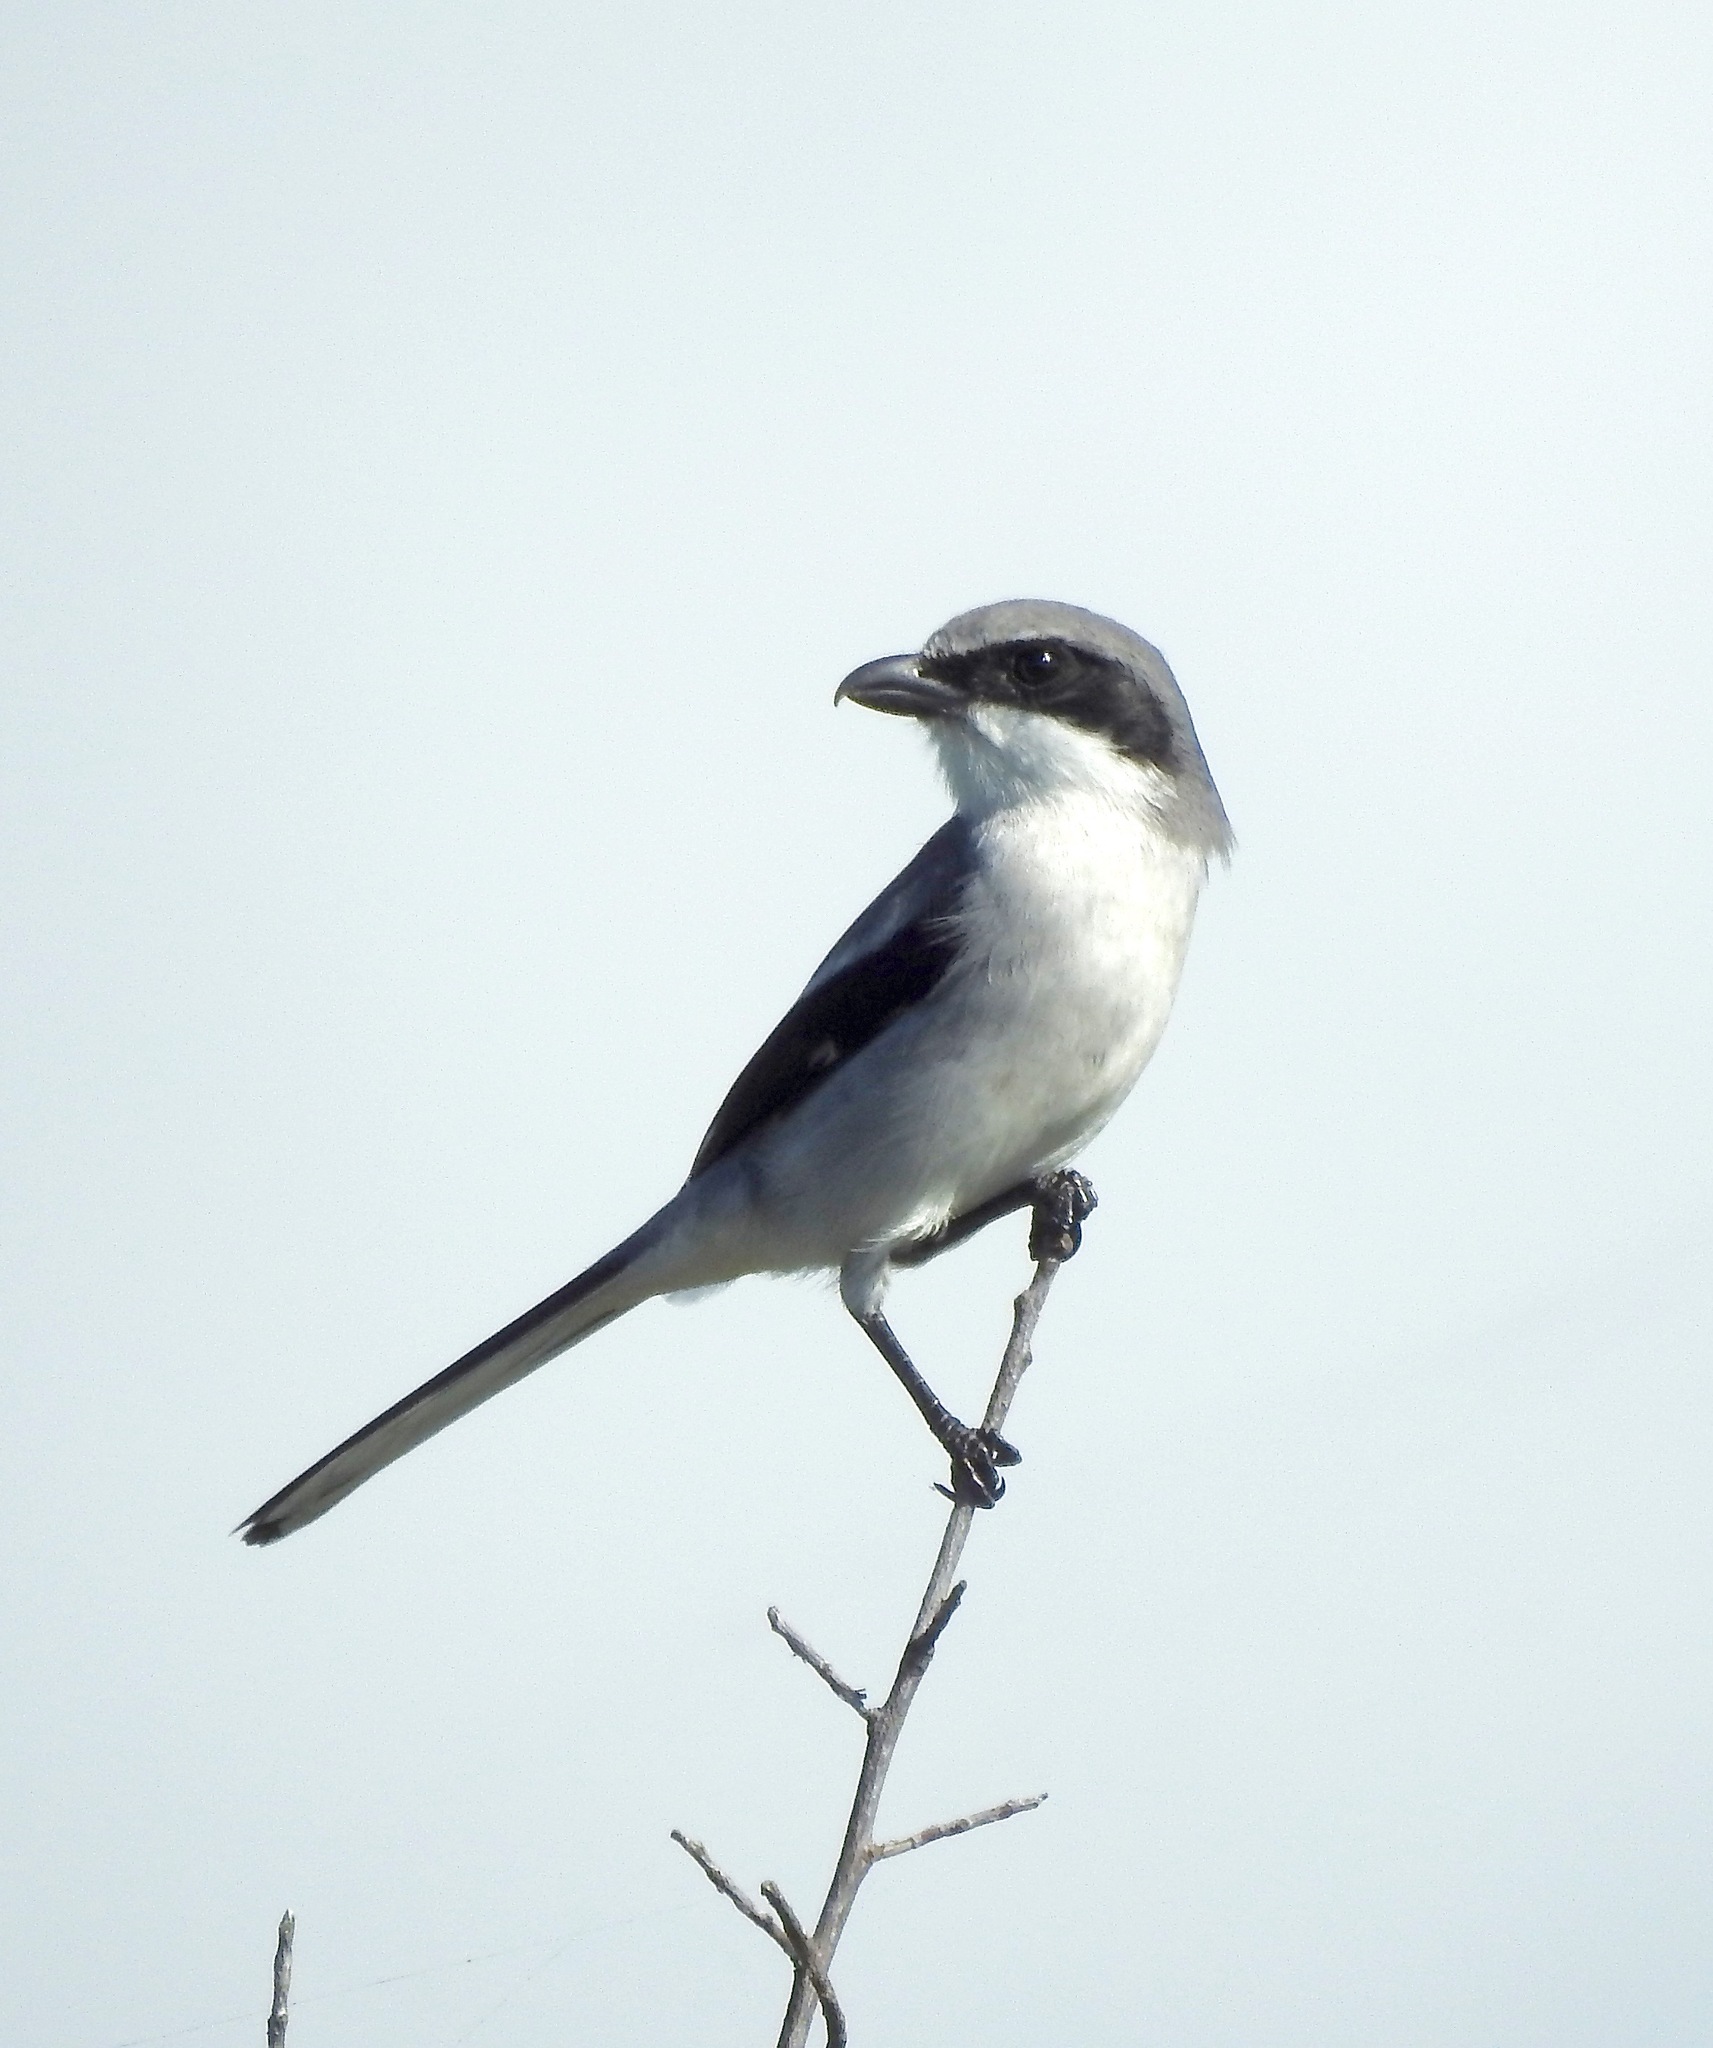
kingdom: Animalia
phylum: Chordata
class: Aves
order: Passeriformes
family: Laniidae
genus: Lanius
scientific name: Lanius ludovicianus
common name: Loggerhead shrike
